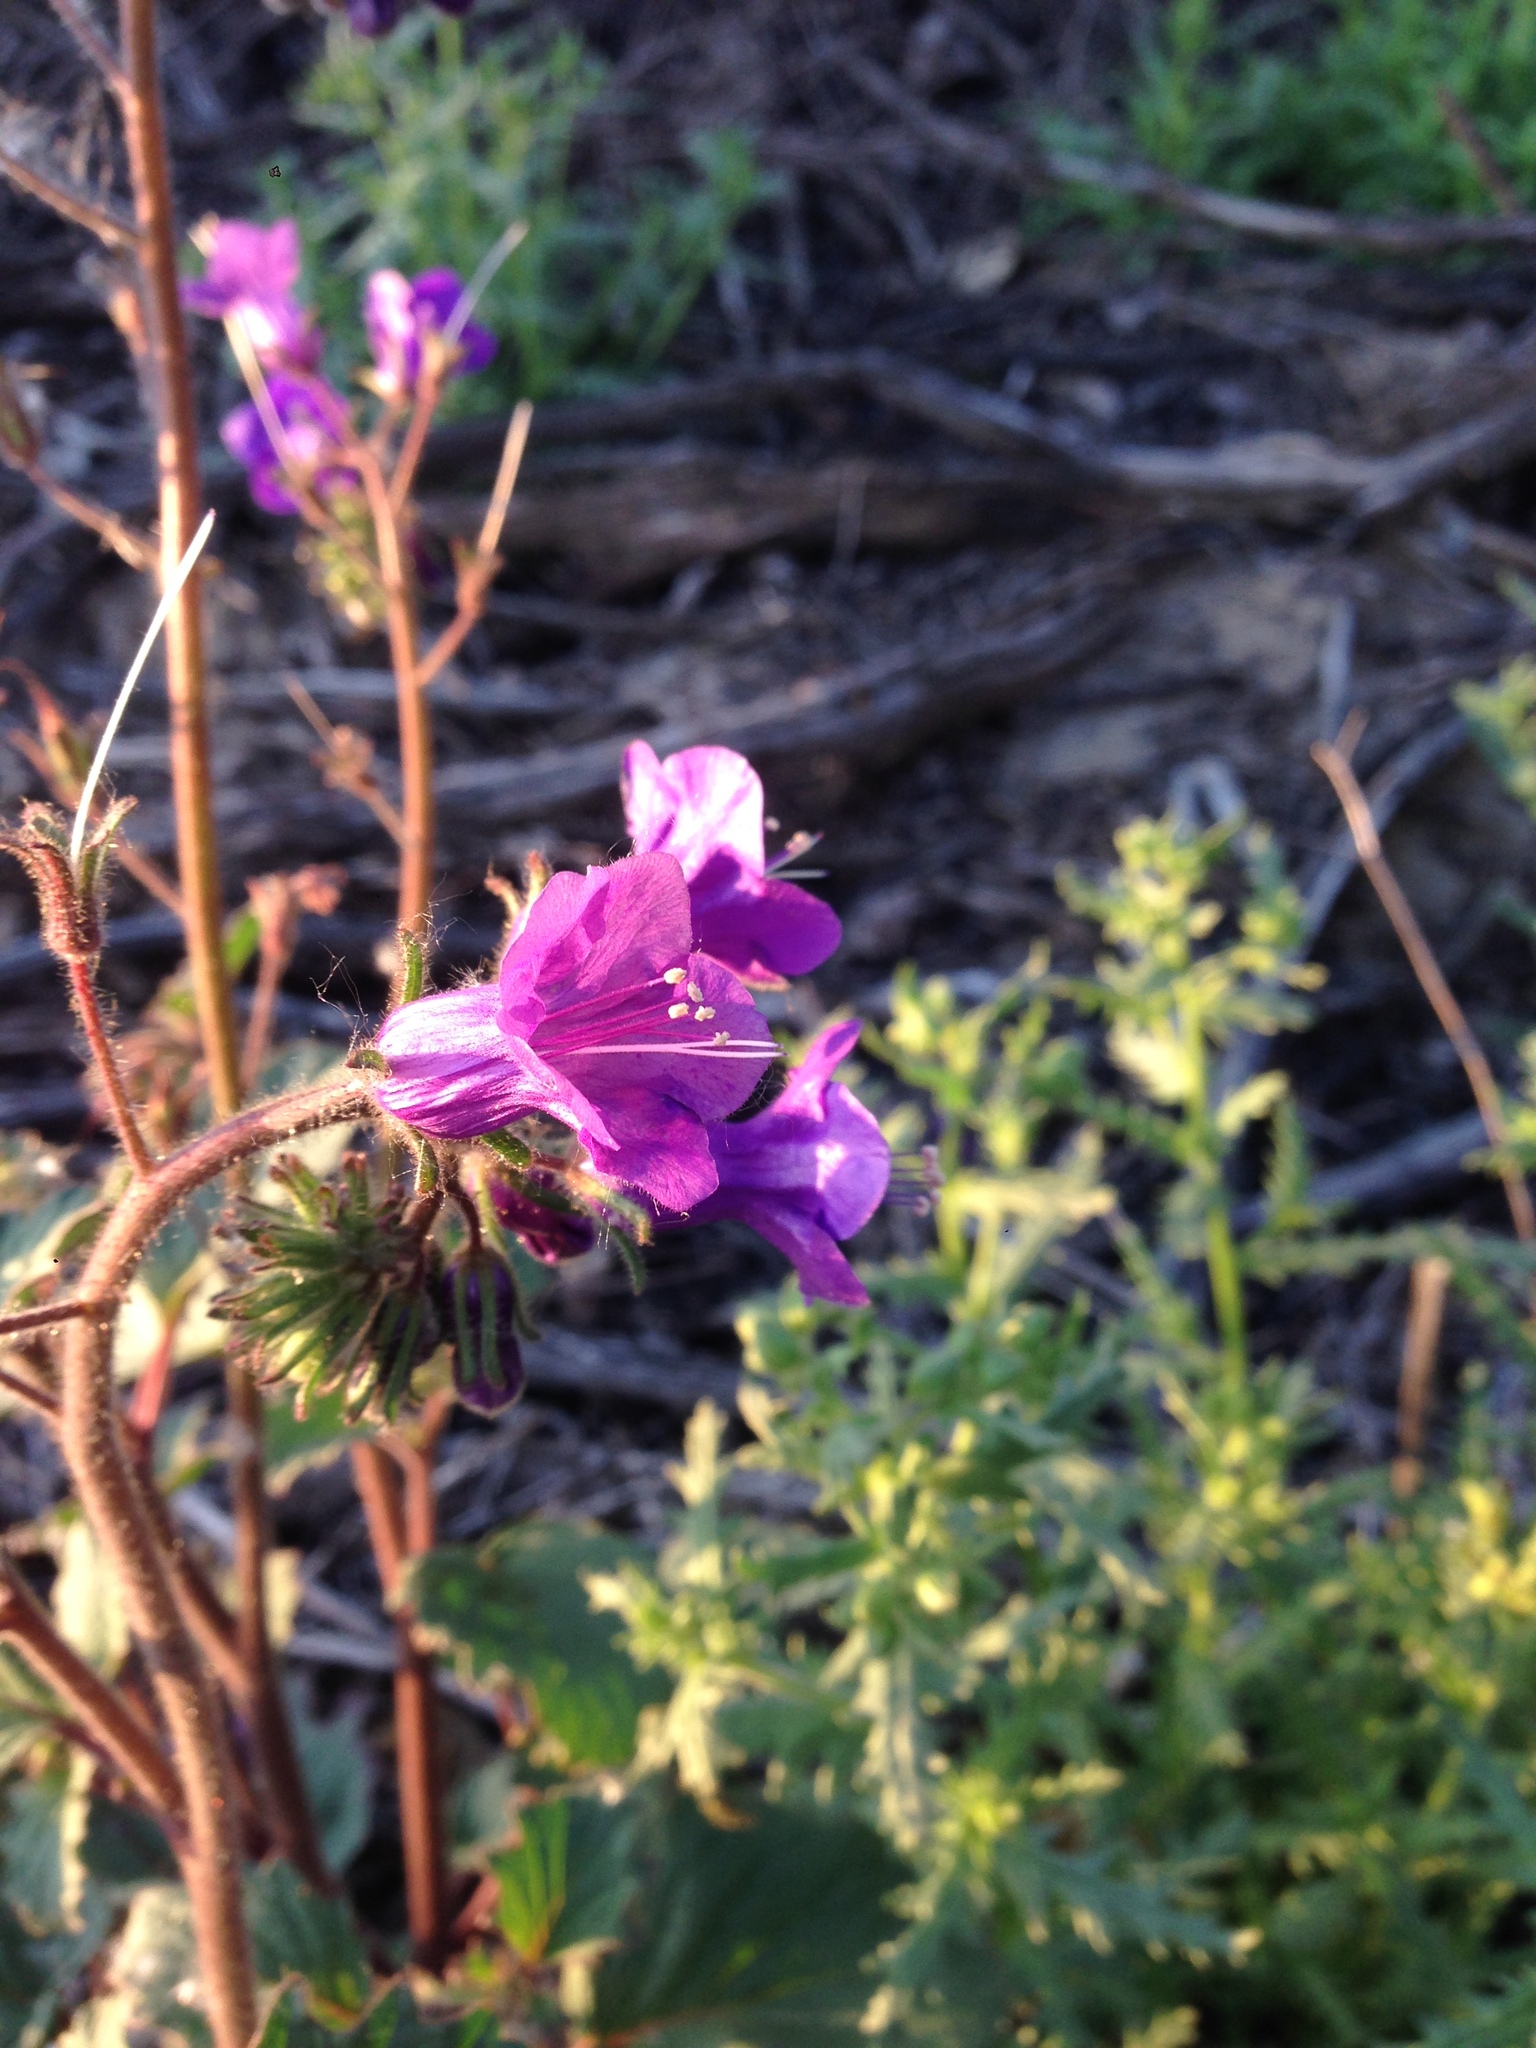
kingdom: Plantae
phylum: Tracheophyta
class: Magnoliopsida
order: Boraginales
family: Hydrophyllaceae
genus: Phacelia
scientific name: Phacelia minor
